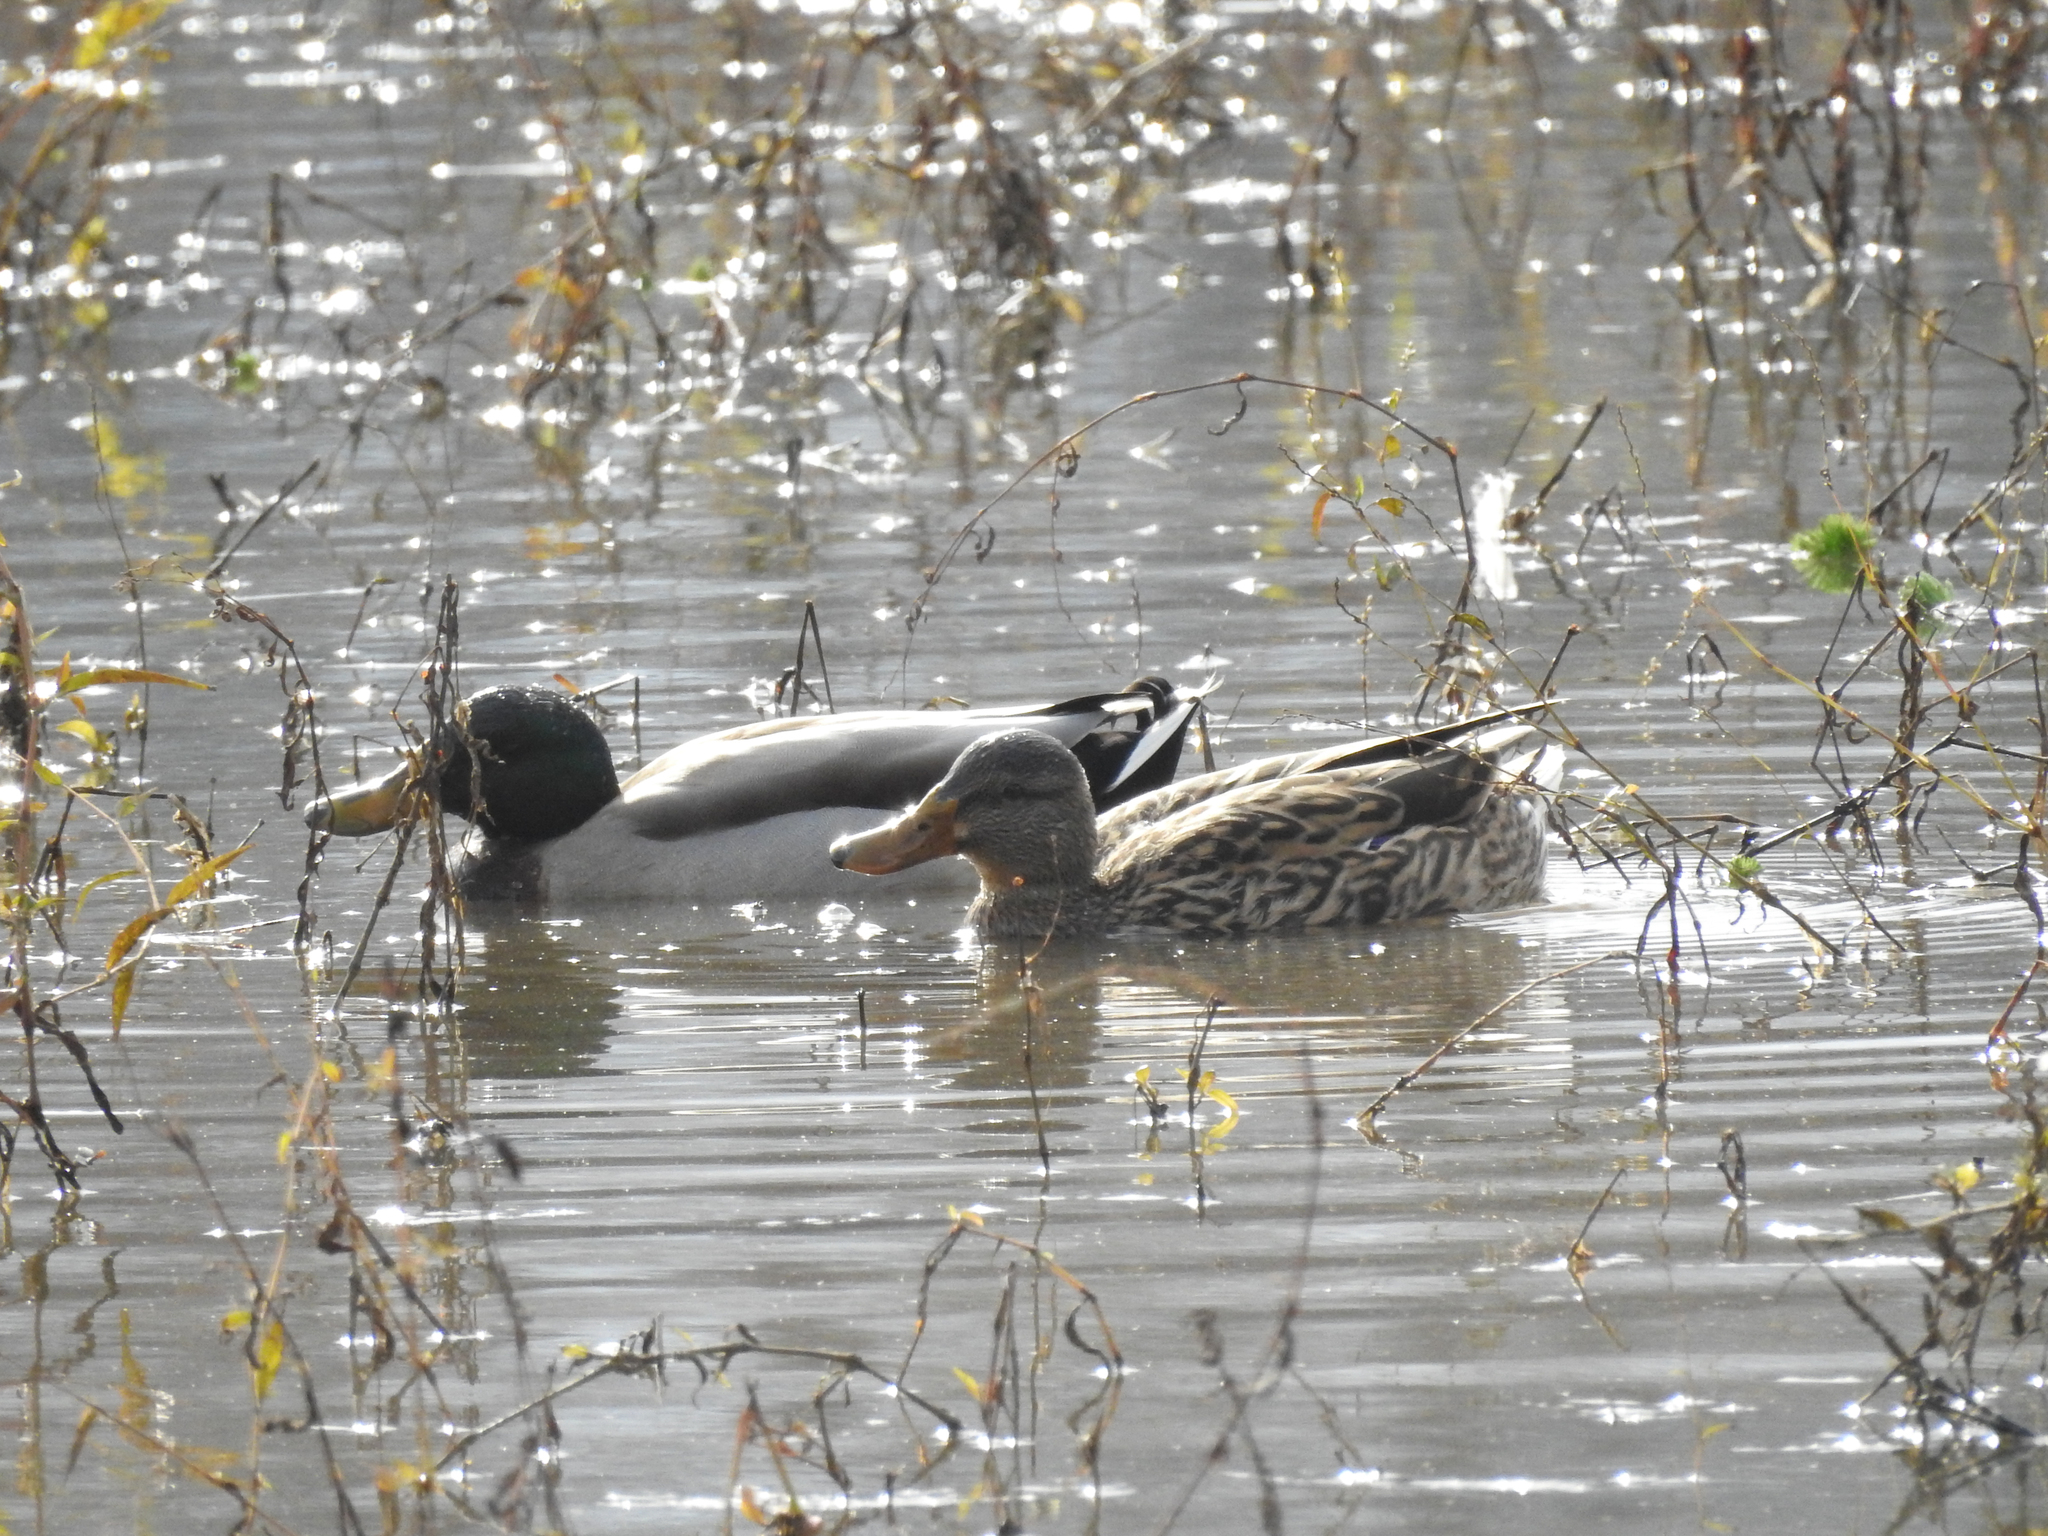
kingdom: Animalia
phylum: Chordata
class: Aves
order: Anseriformes
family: Anatidae
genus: Anas
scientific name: Anas platyrhynchos
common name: Mallard
